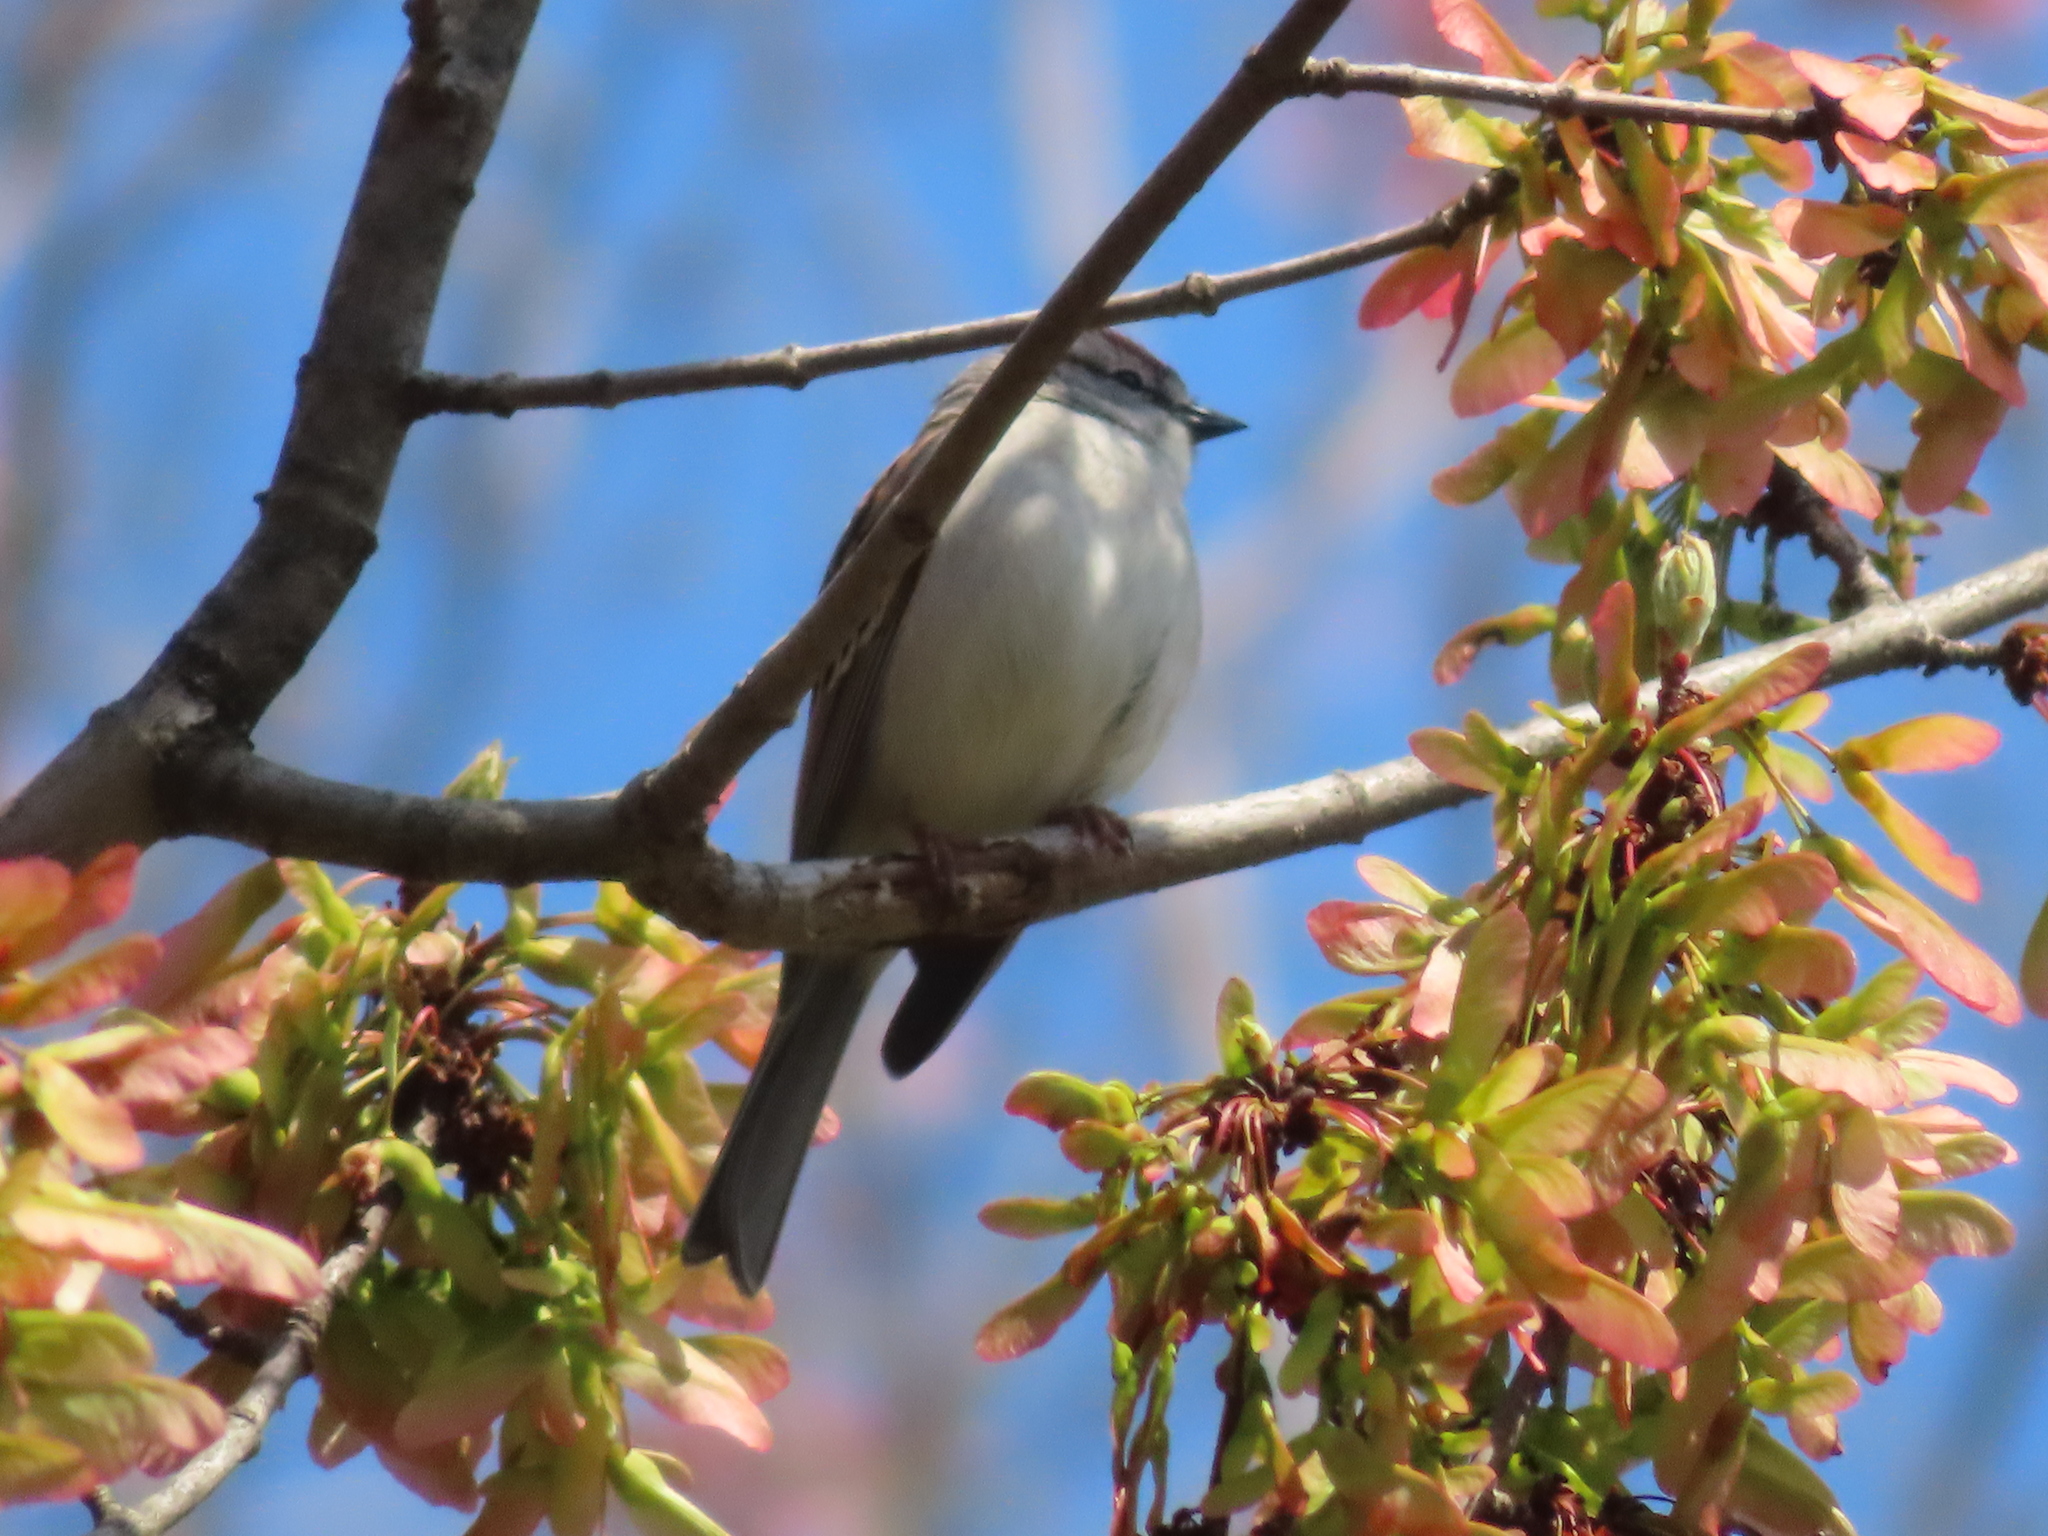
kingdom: Animalia
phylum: Chordata
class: Aves
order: Passeriformes
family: Passerellidae
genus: Spizella
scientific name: Spizella passerina
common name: Chipping sparrow
